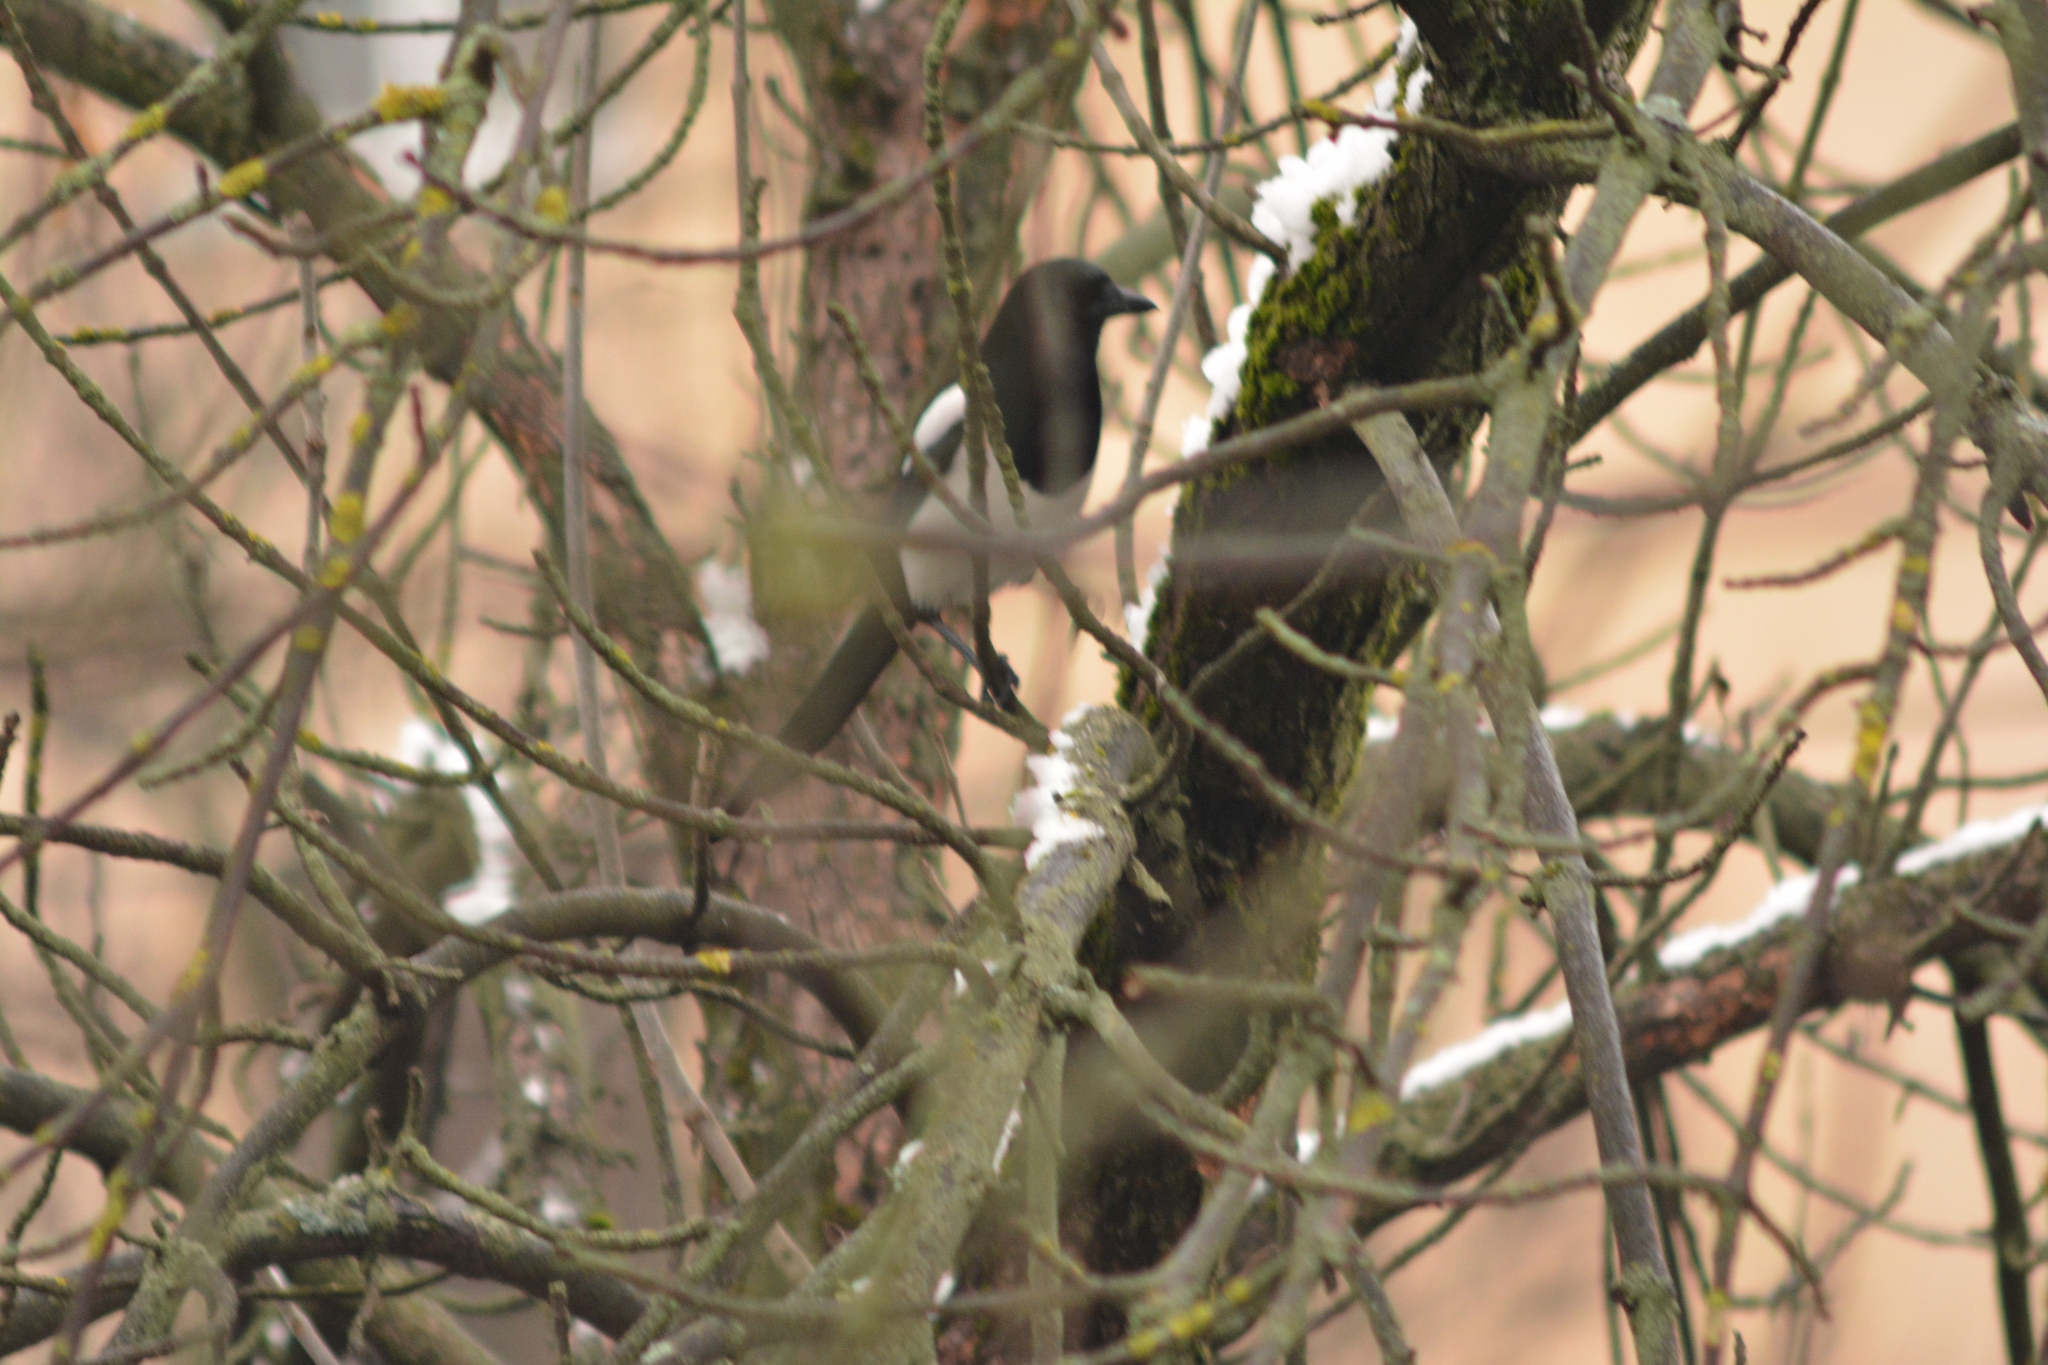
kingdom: Animalia
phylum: Chordata
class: Aves
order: Passeriformes
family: Corvidae
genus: Pica
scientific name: Pica pica
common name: Eurasian magpie
